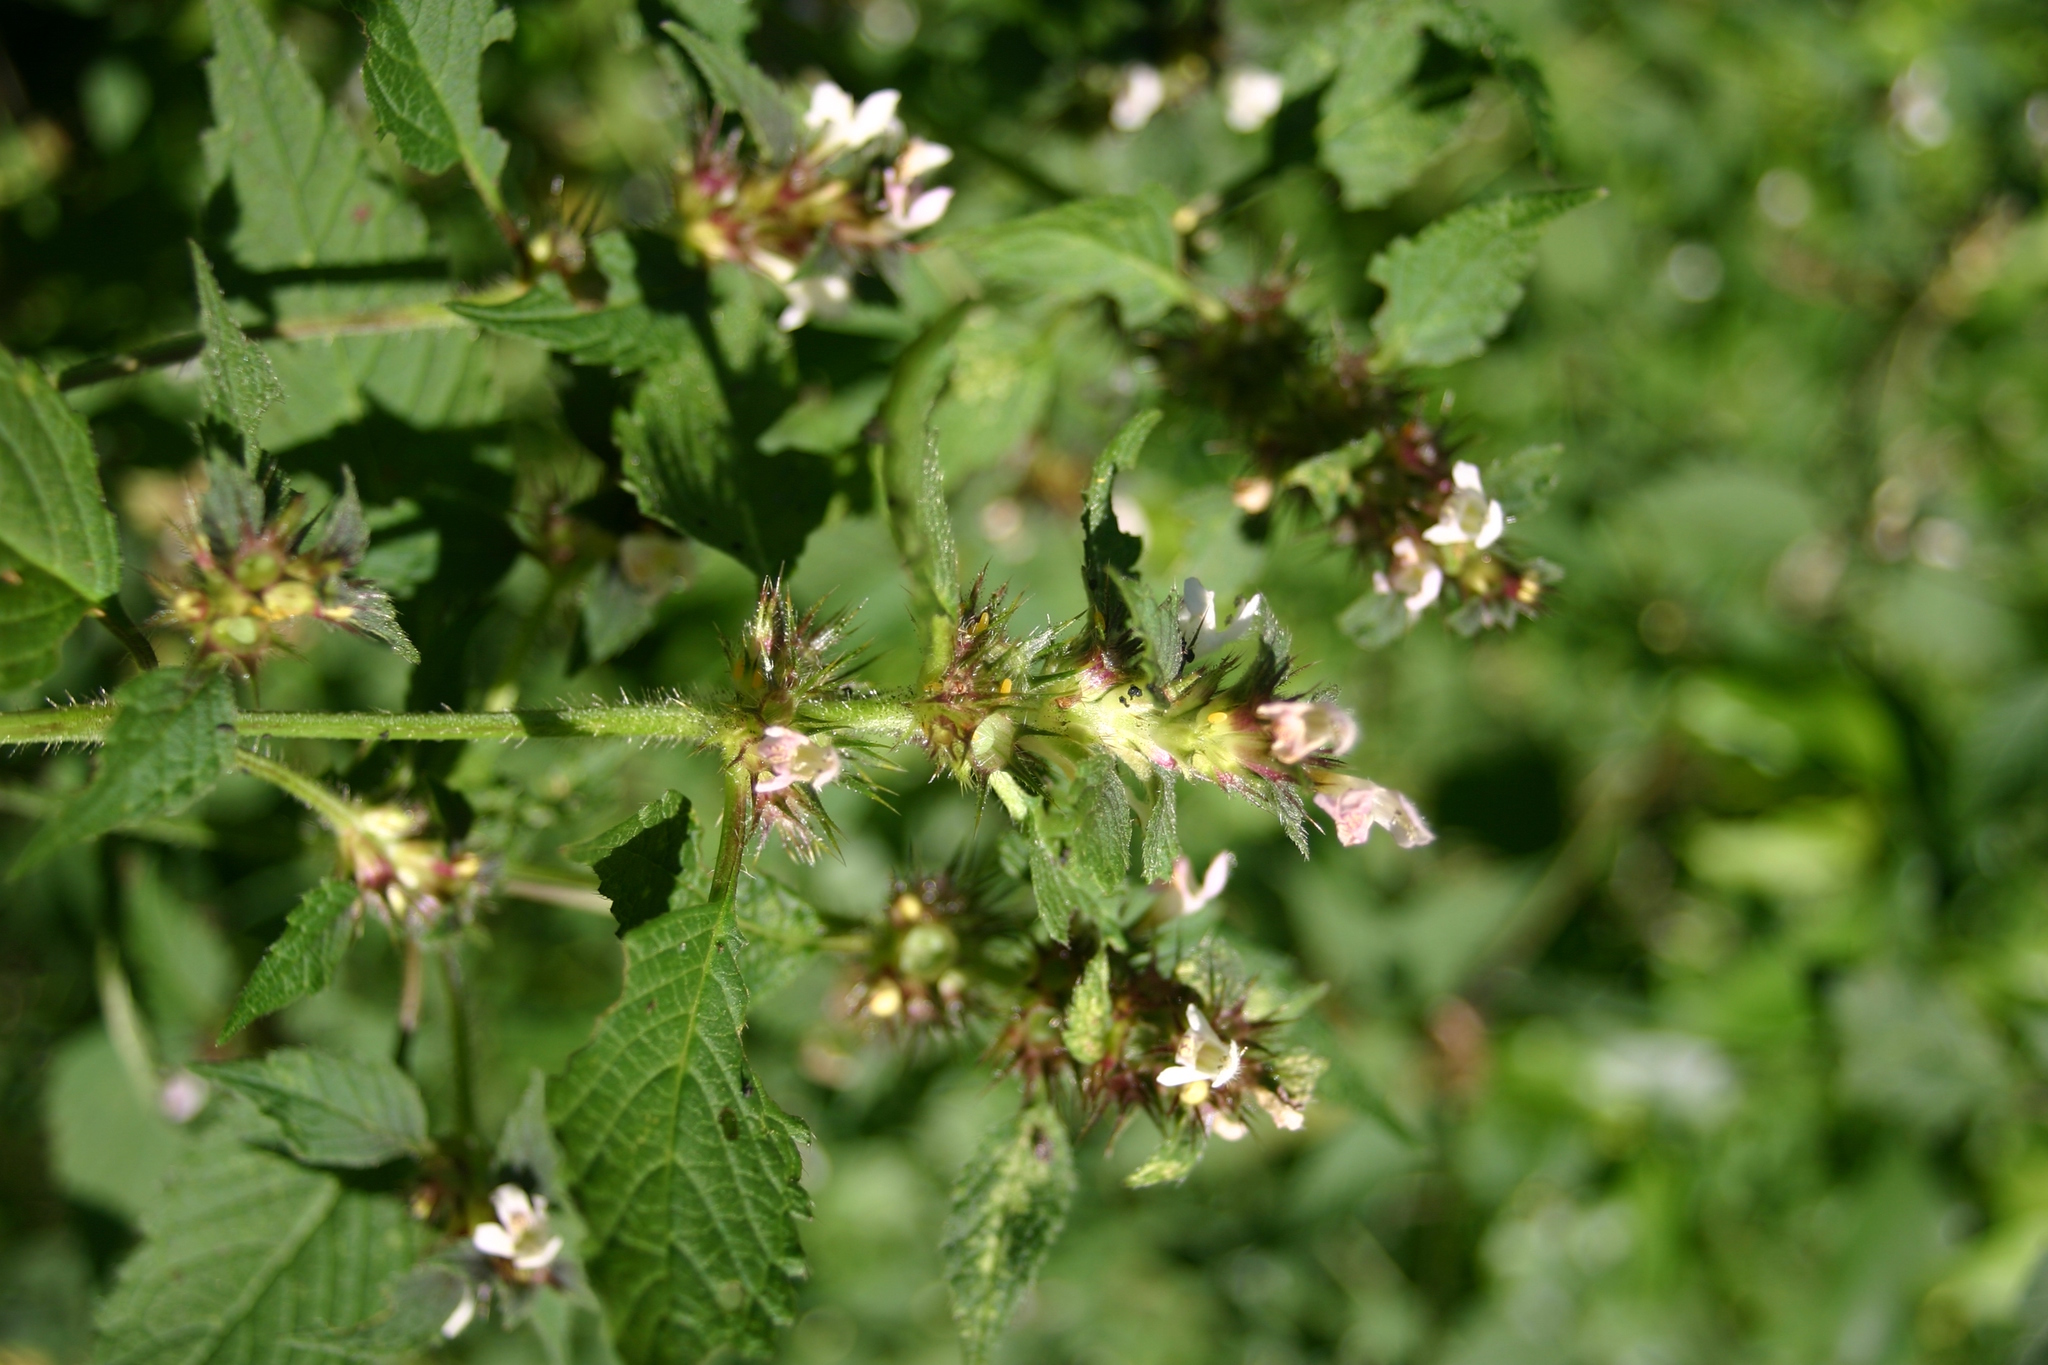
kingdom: Plantae
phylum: Tracheophyta
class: Magnoliopsida
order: Lamiales
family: Lamiaceae
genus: Galeopsis
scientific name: Galeopsis tetrahit
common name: Common hemp-nettle
